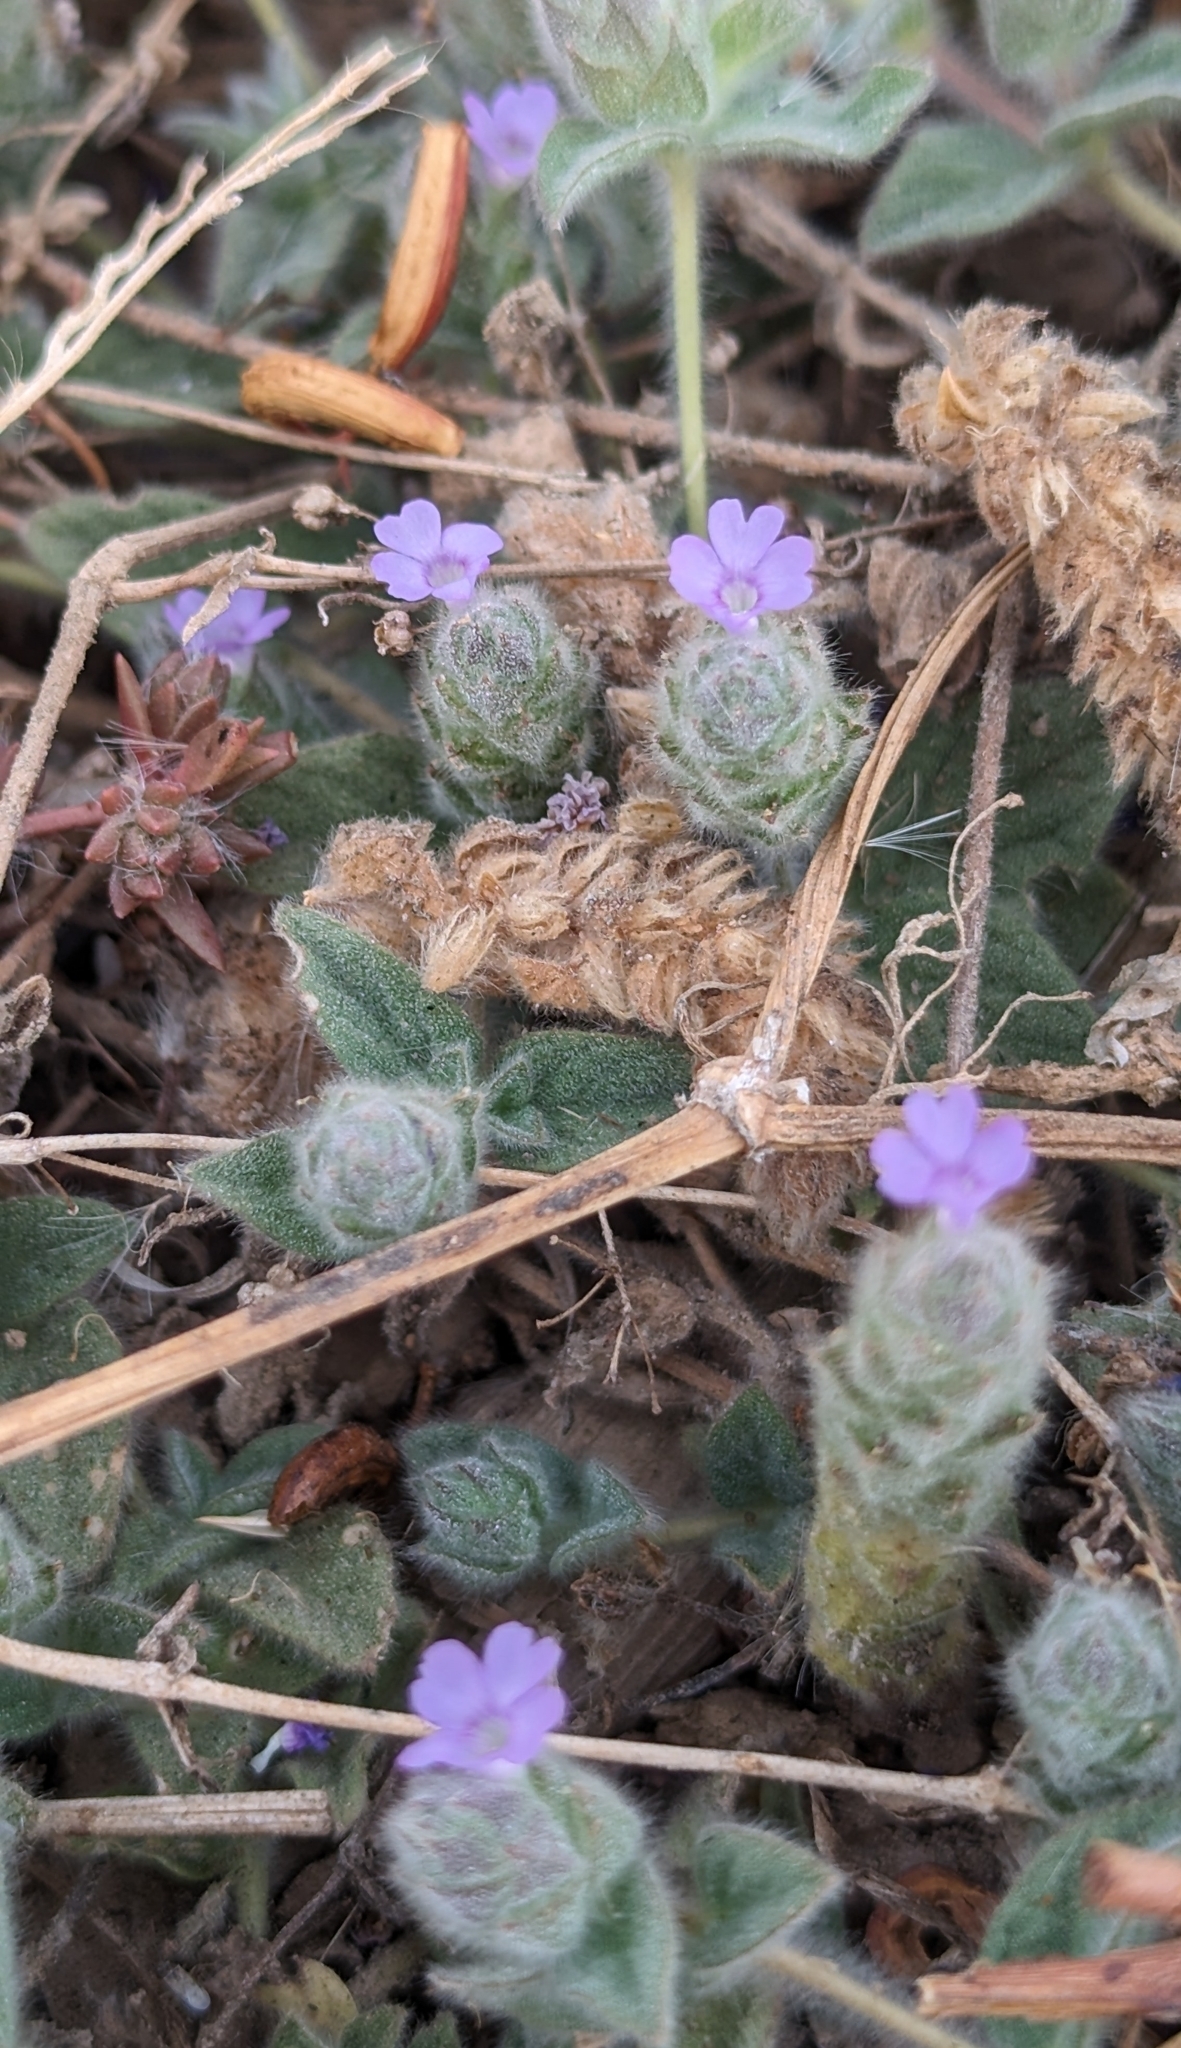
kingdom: Plantae
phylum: Tracheophyta
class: Magnoliopsida
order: Lamiales
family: Acanthaceae
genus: Nelsonia
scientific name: Nelsonia canescens
